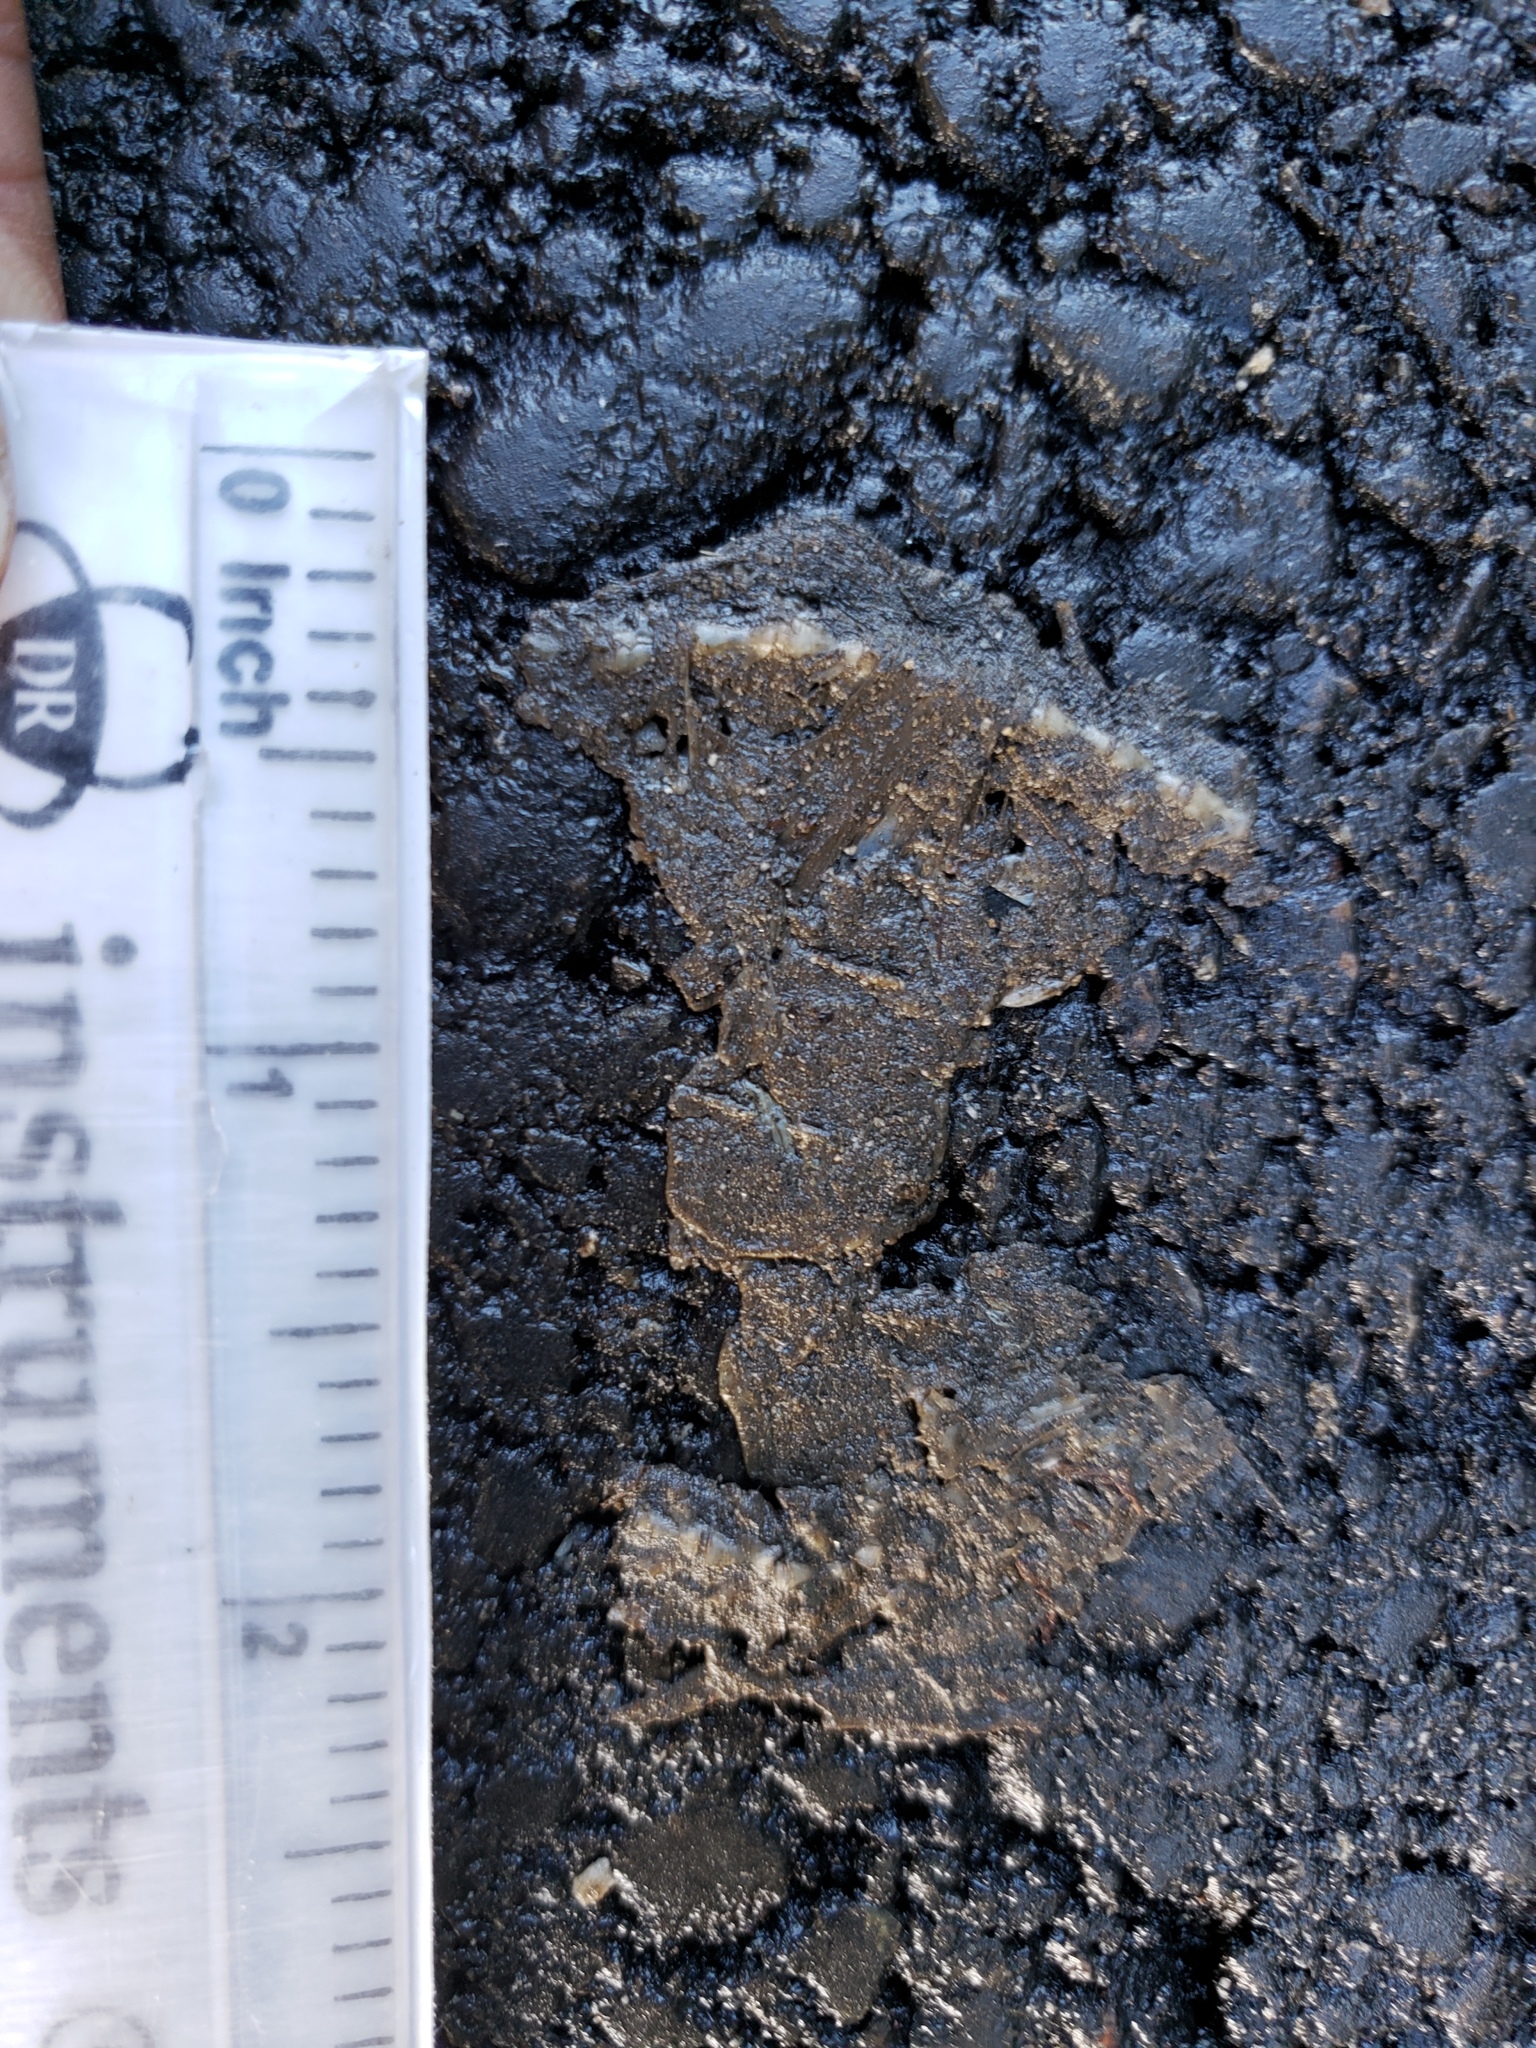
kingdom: Animalia
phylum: Chordata
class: Amphibia
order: Caudata
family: Salamandridae
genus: Taricha
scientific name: Taricha
